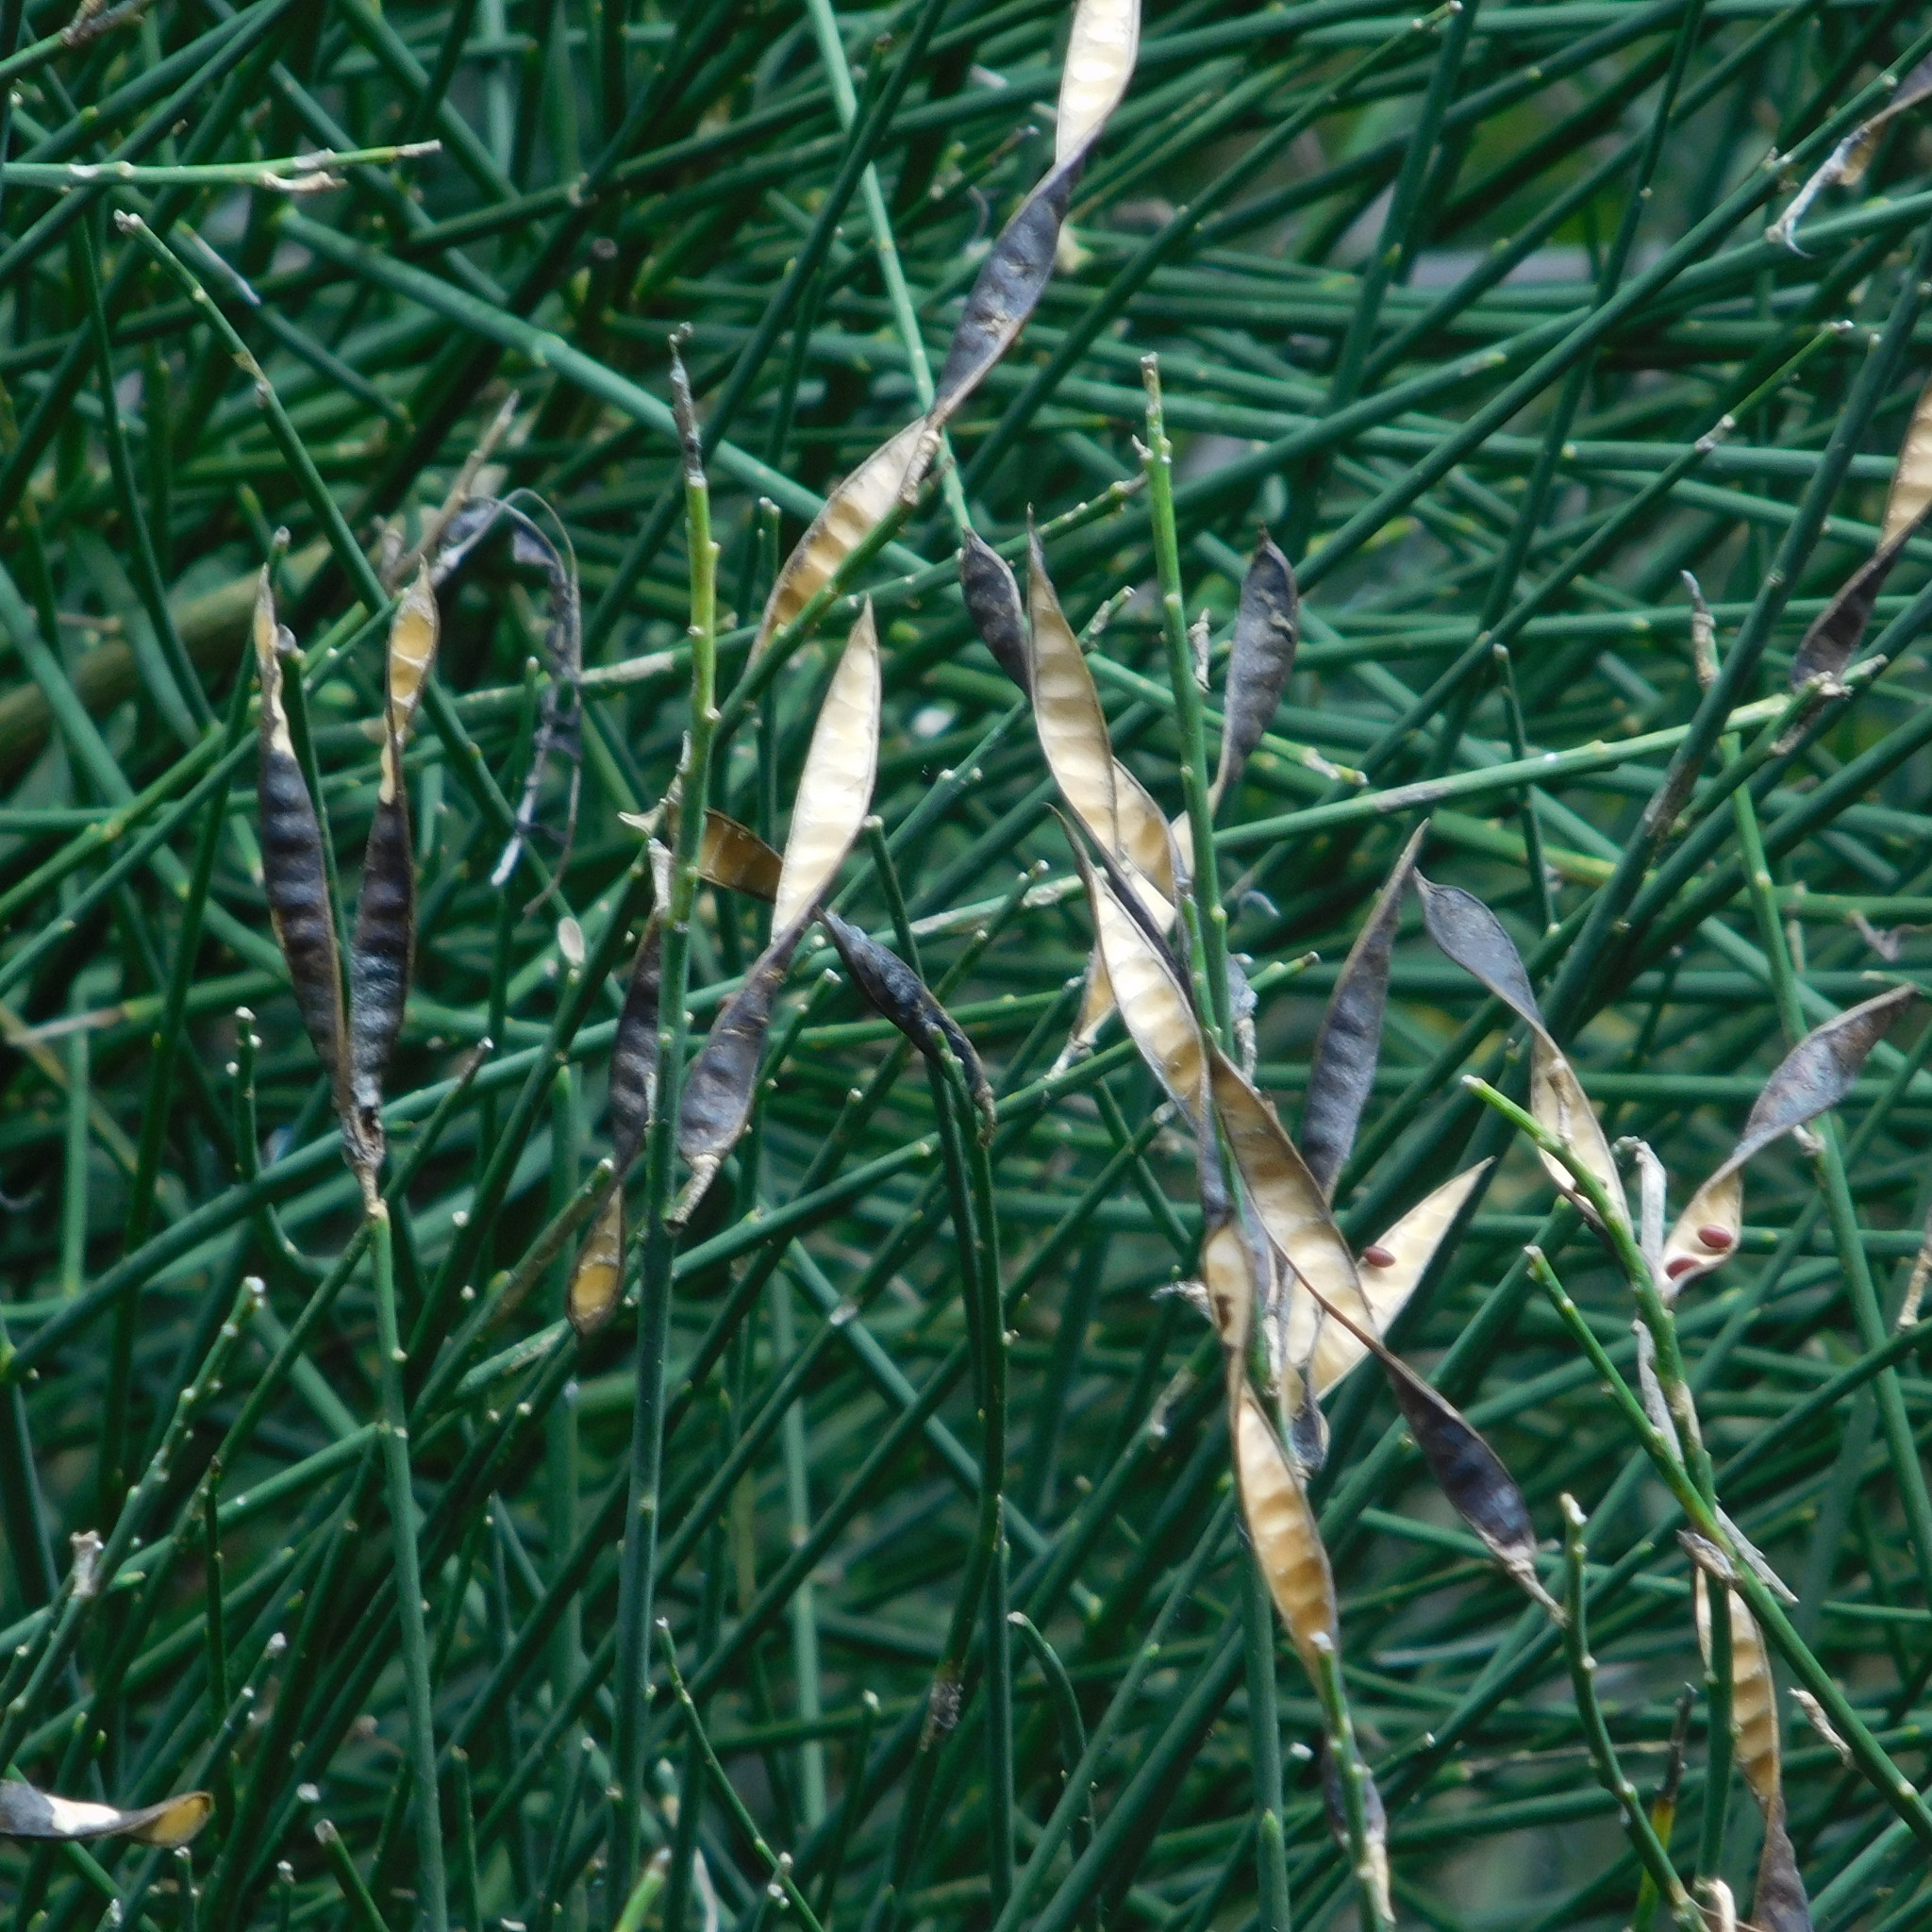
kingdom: Plantae
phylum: Tracheophyta
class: Magnoliopsida
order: Fabales
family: Fabaceae
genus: Spartium
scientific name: Spartium junceum
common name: Spanish broom
